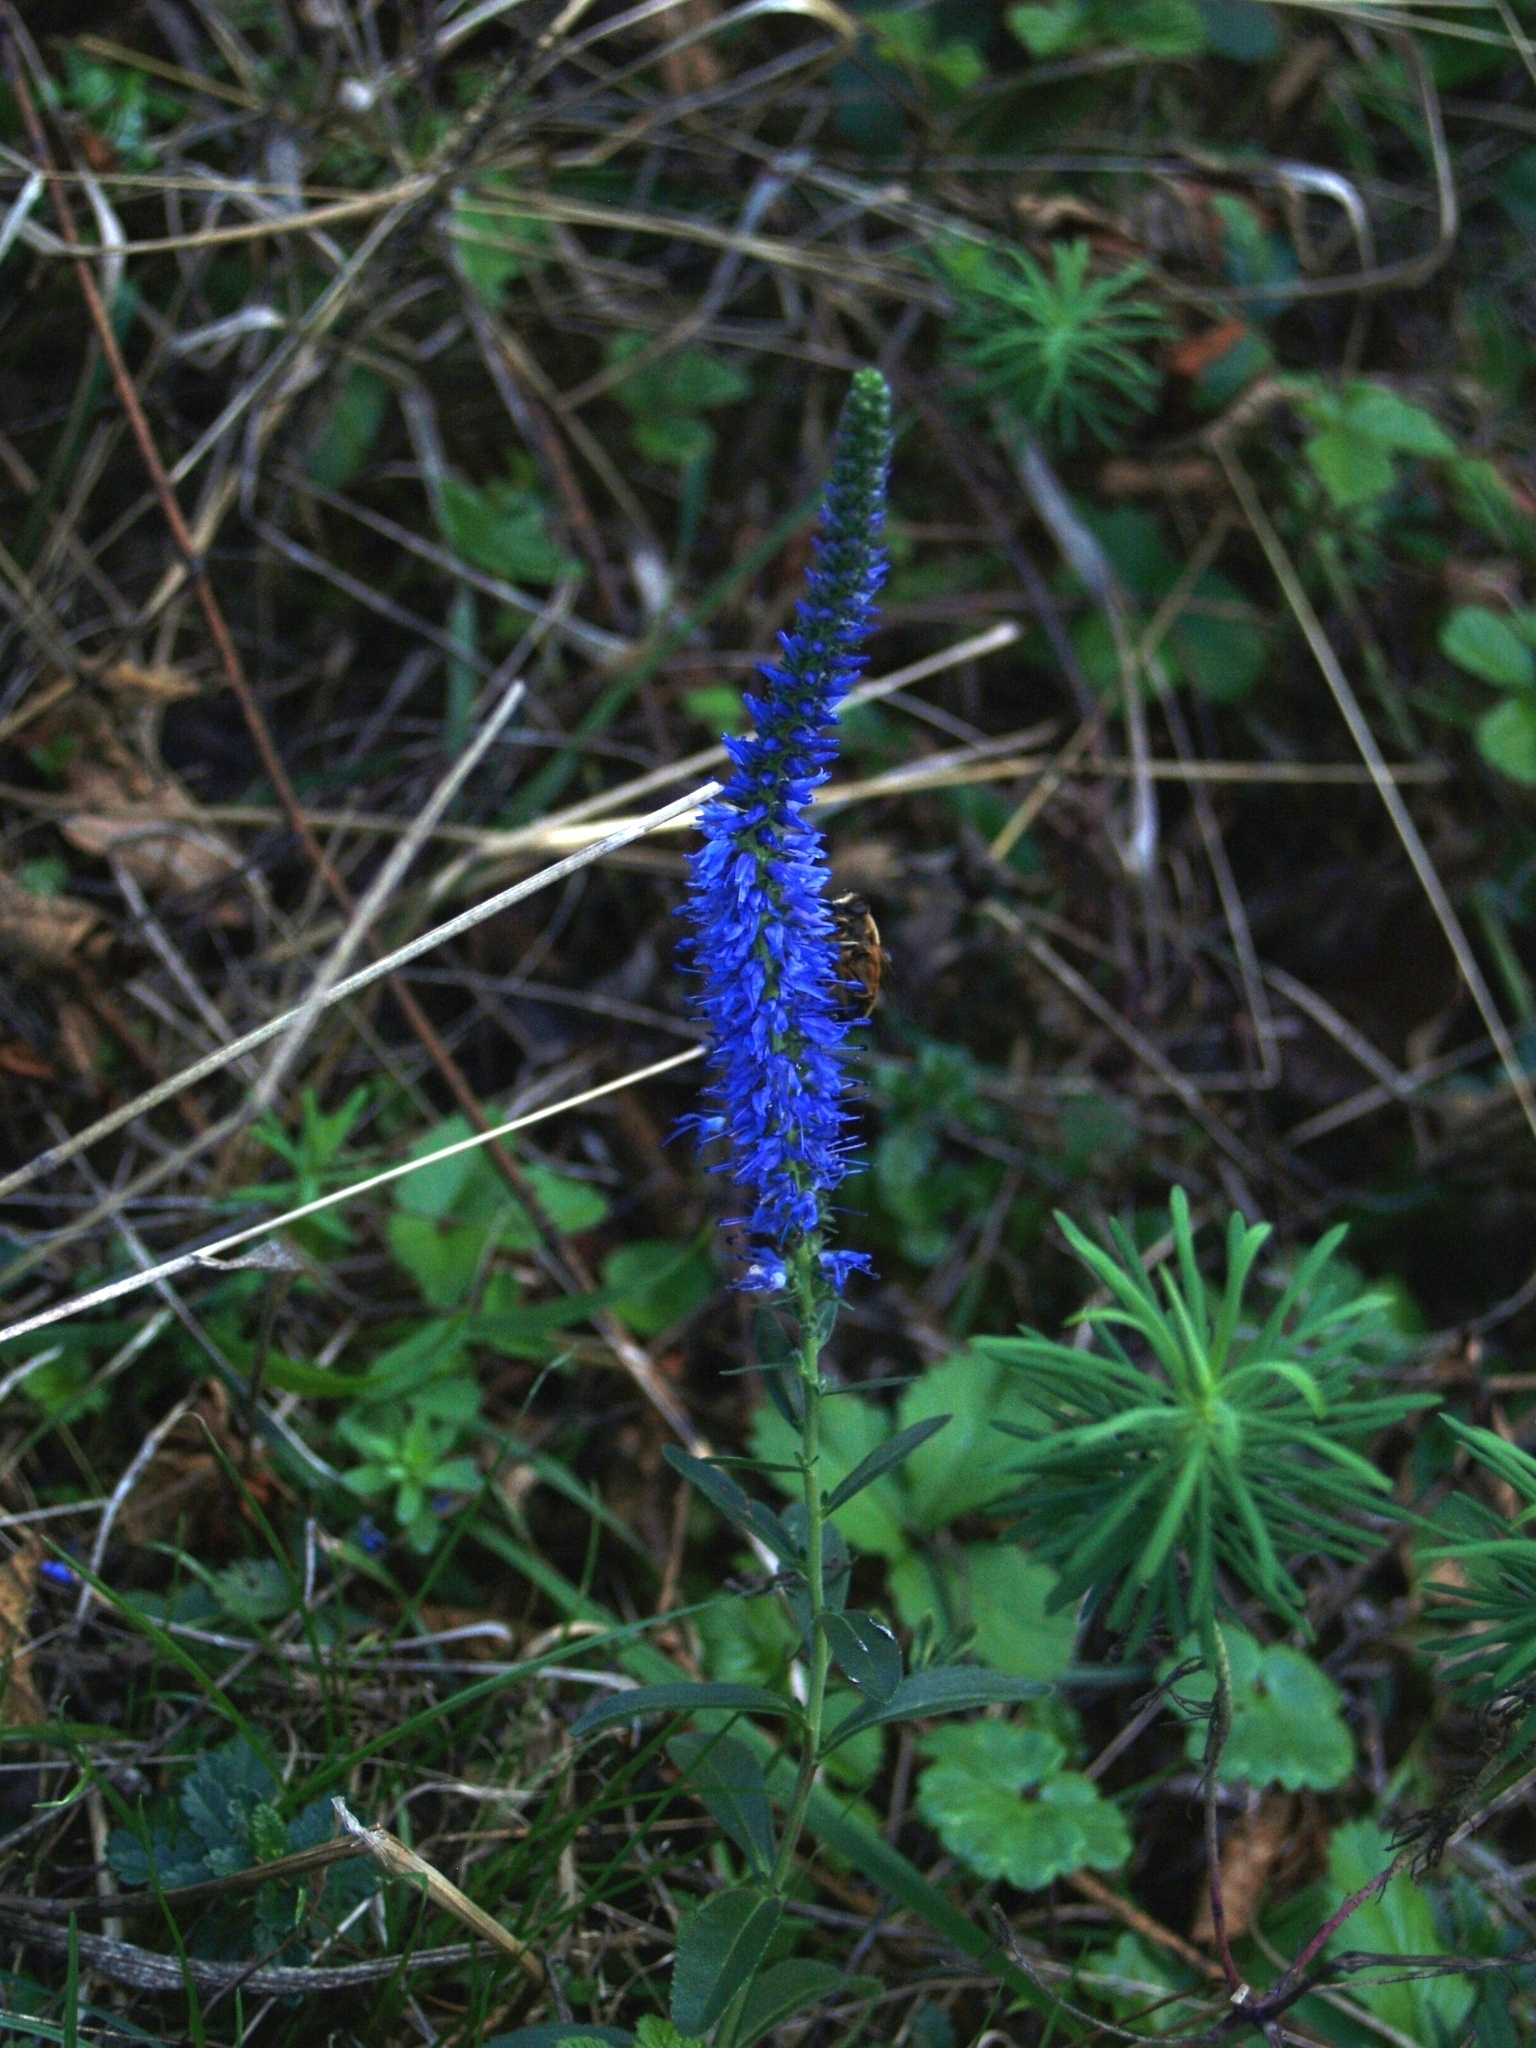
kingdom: Plantae
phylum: Tracheophyta
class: Magnoliopsida
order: Lamiales
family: Plantaginaceae
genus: Veronica
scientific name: Veronica spicata
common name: Spiked speedwell
